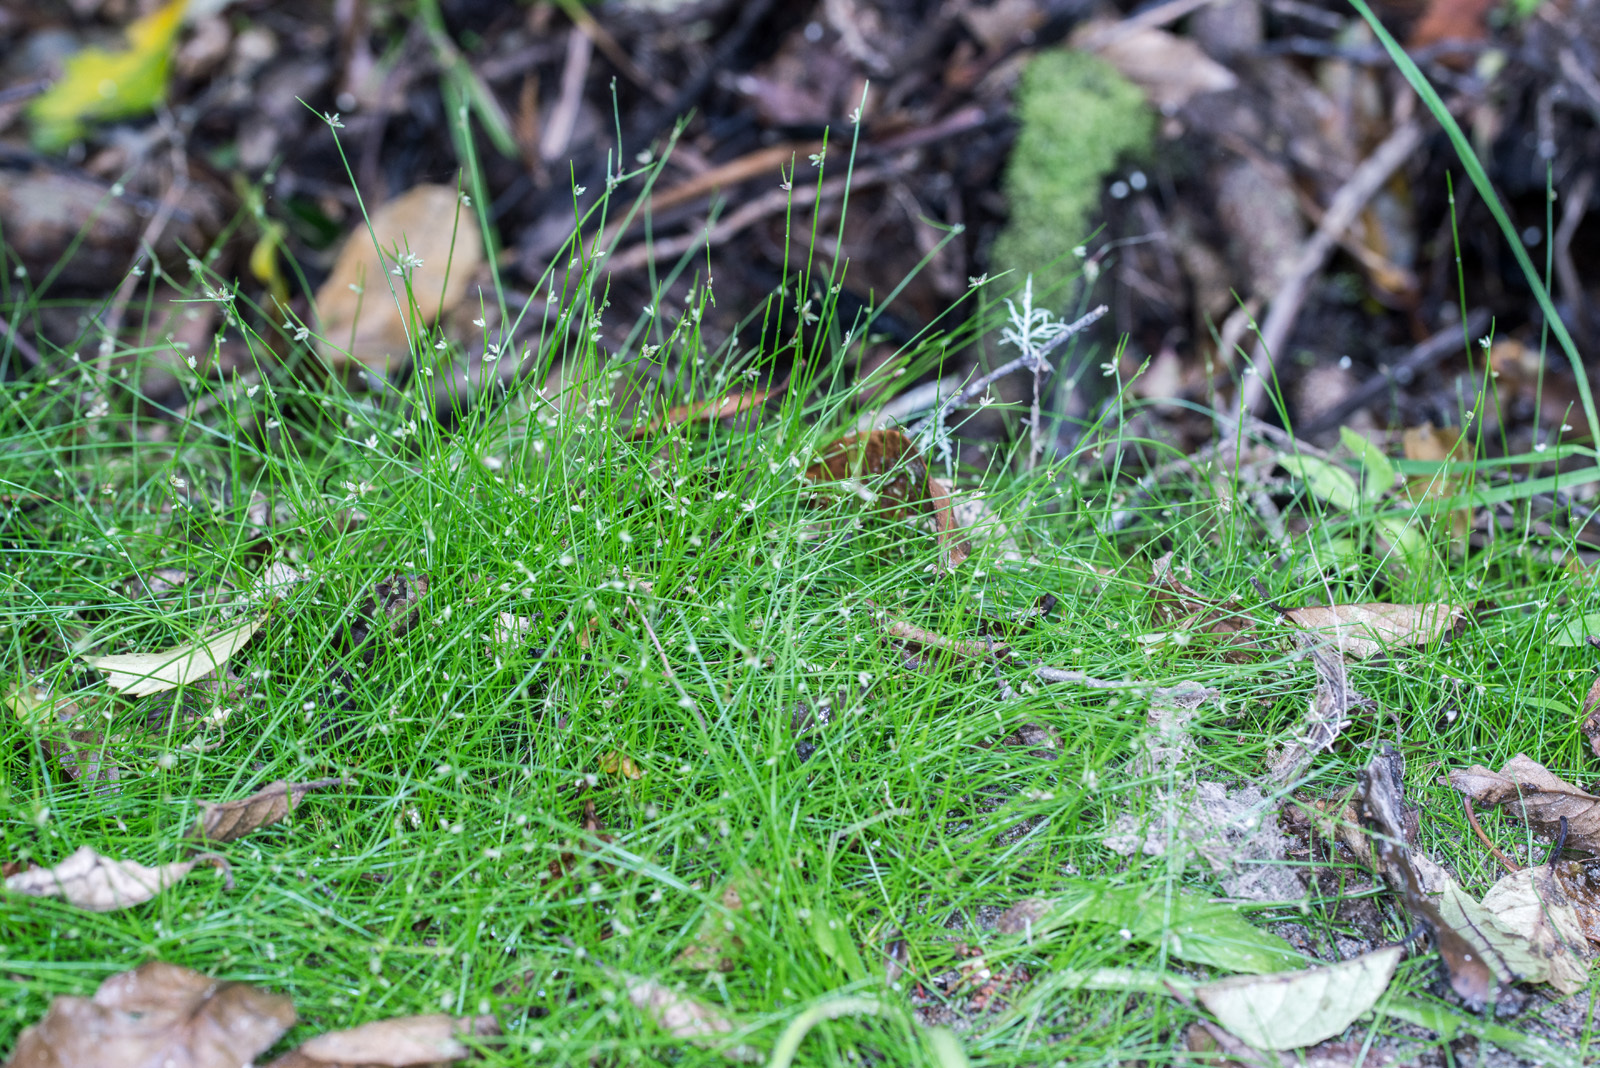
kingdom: Plantae
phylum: Tracheophyta
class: Liliopsida
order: Poales
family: Cyperaceae
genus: Isolepis
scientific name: Isolepis reticularis
